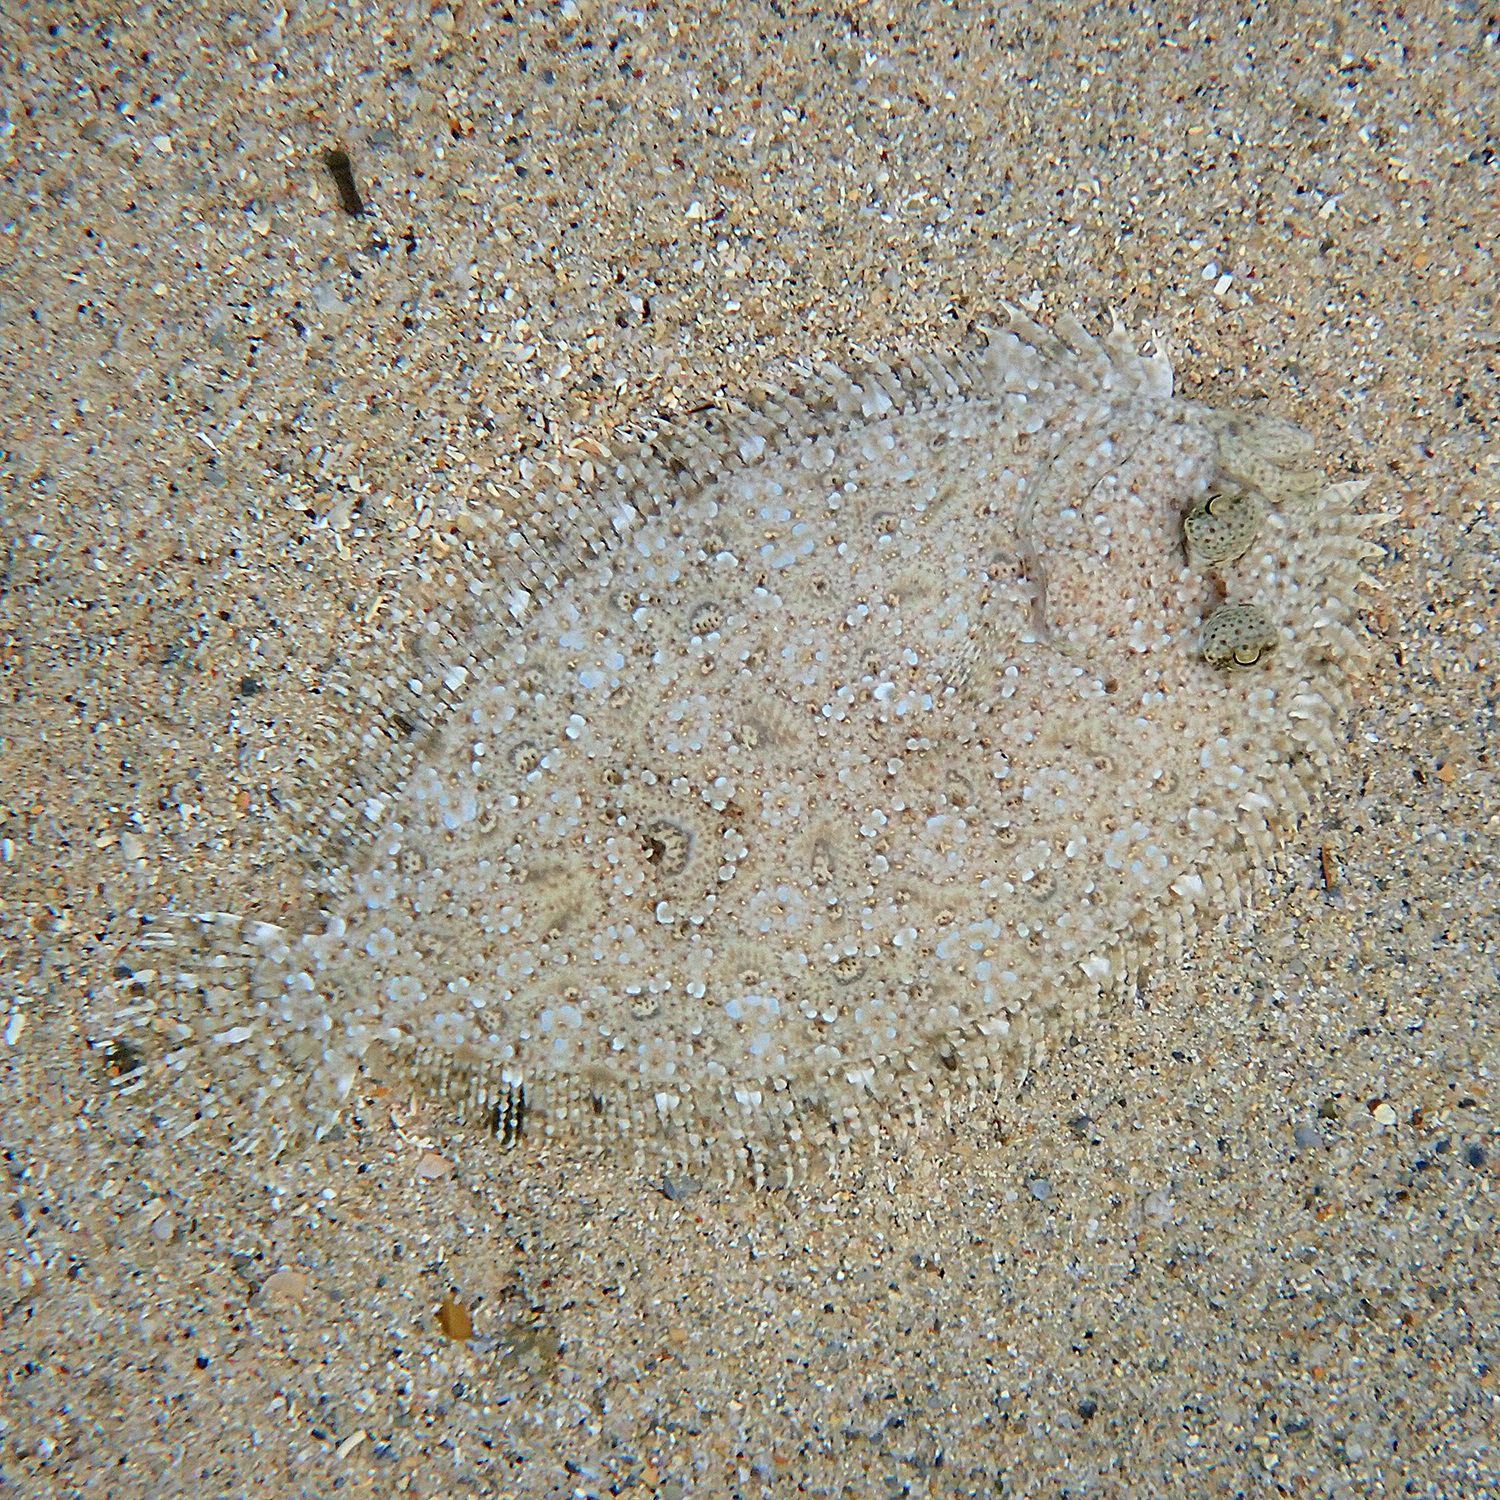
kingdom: Animalia
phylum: Chordata
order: Pleuronectiformes
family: Bothidae
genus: Bothus
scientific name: Bothus pantherinus
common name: Leopard flounder
